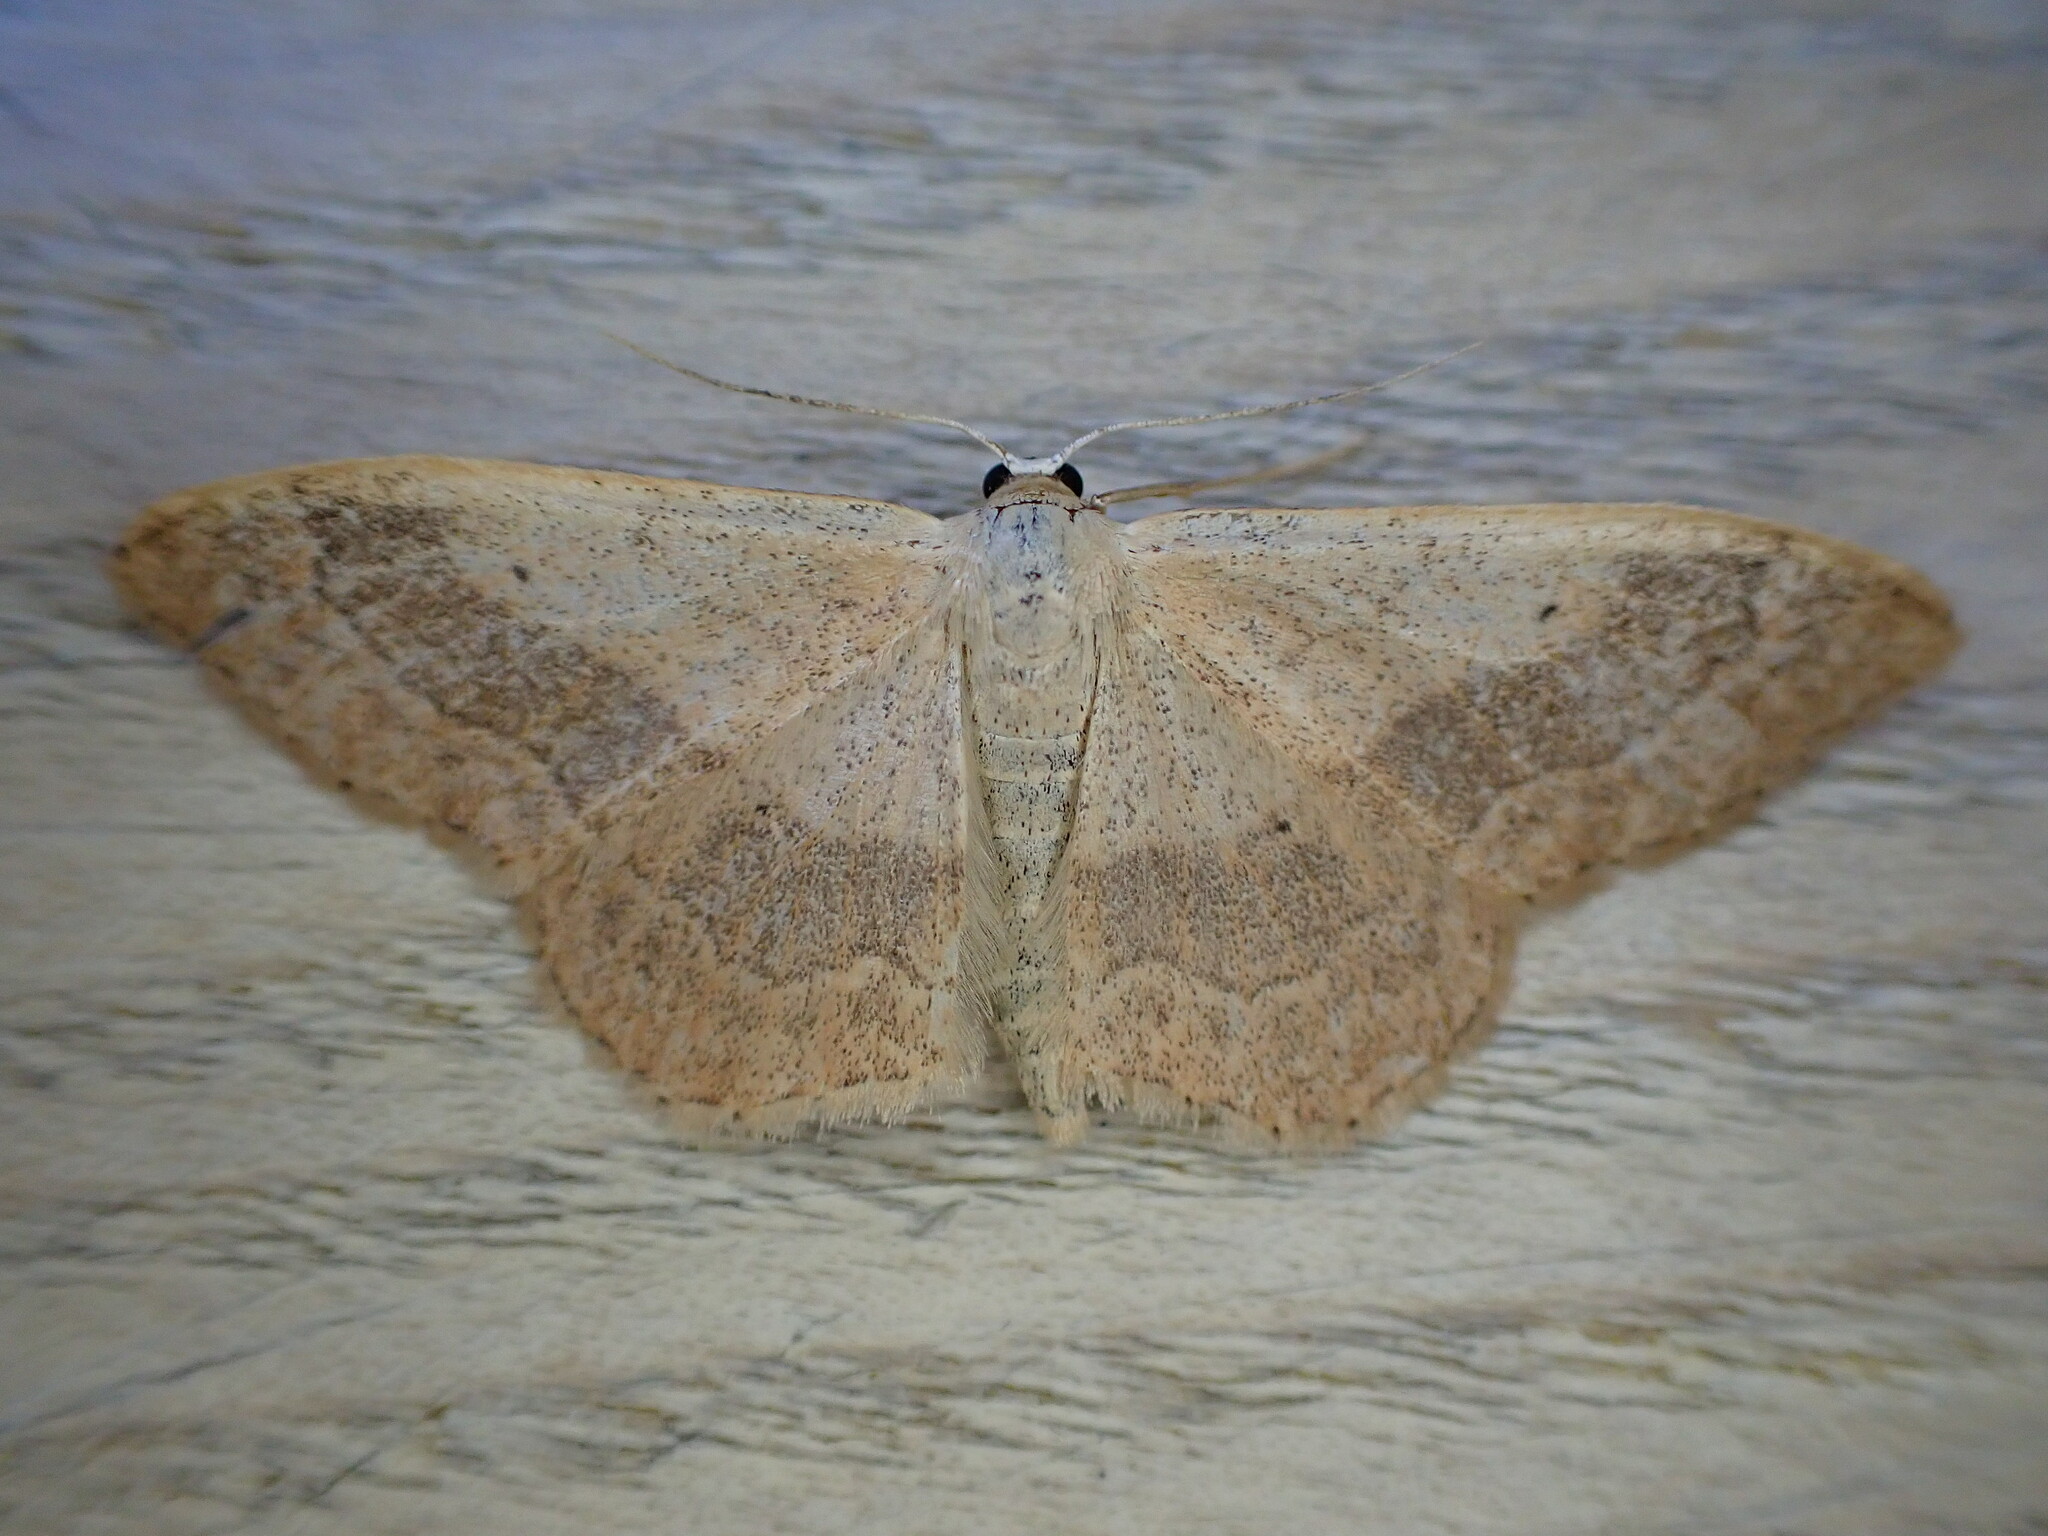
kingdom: Animalia
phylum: Arthropoda
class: Insecta
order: Lepidoptera
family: Geometridae
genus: Idaea
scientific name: Idaea aversata
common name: Riband wave
